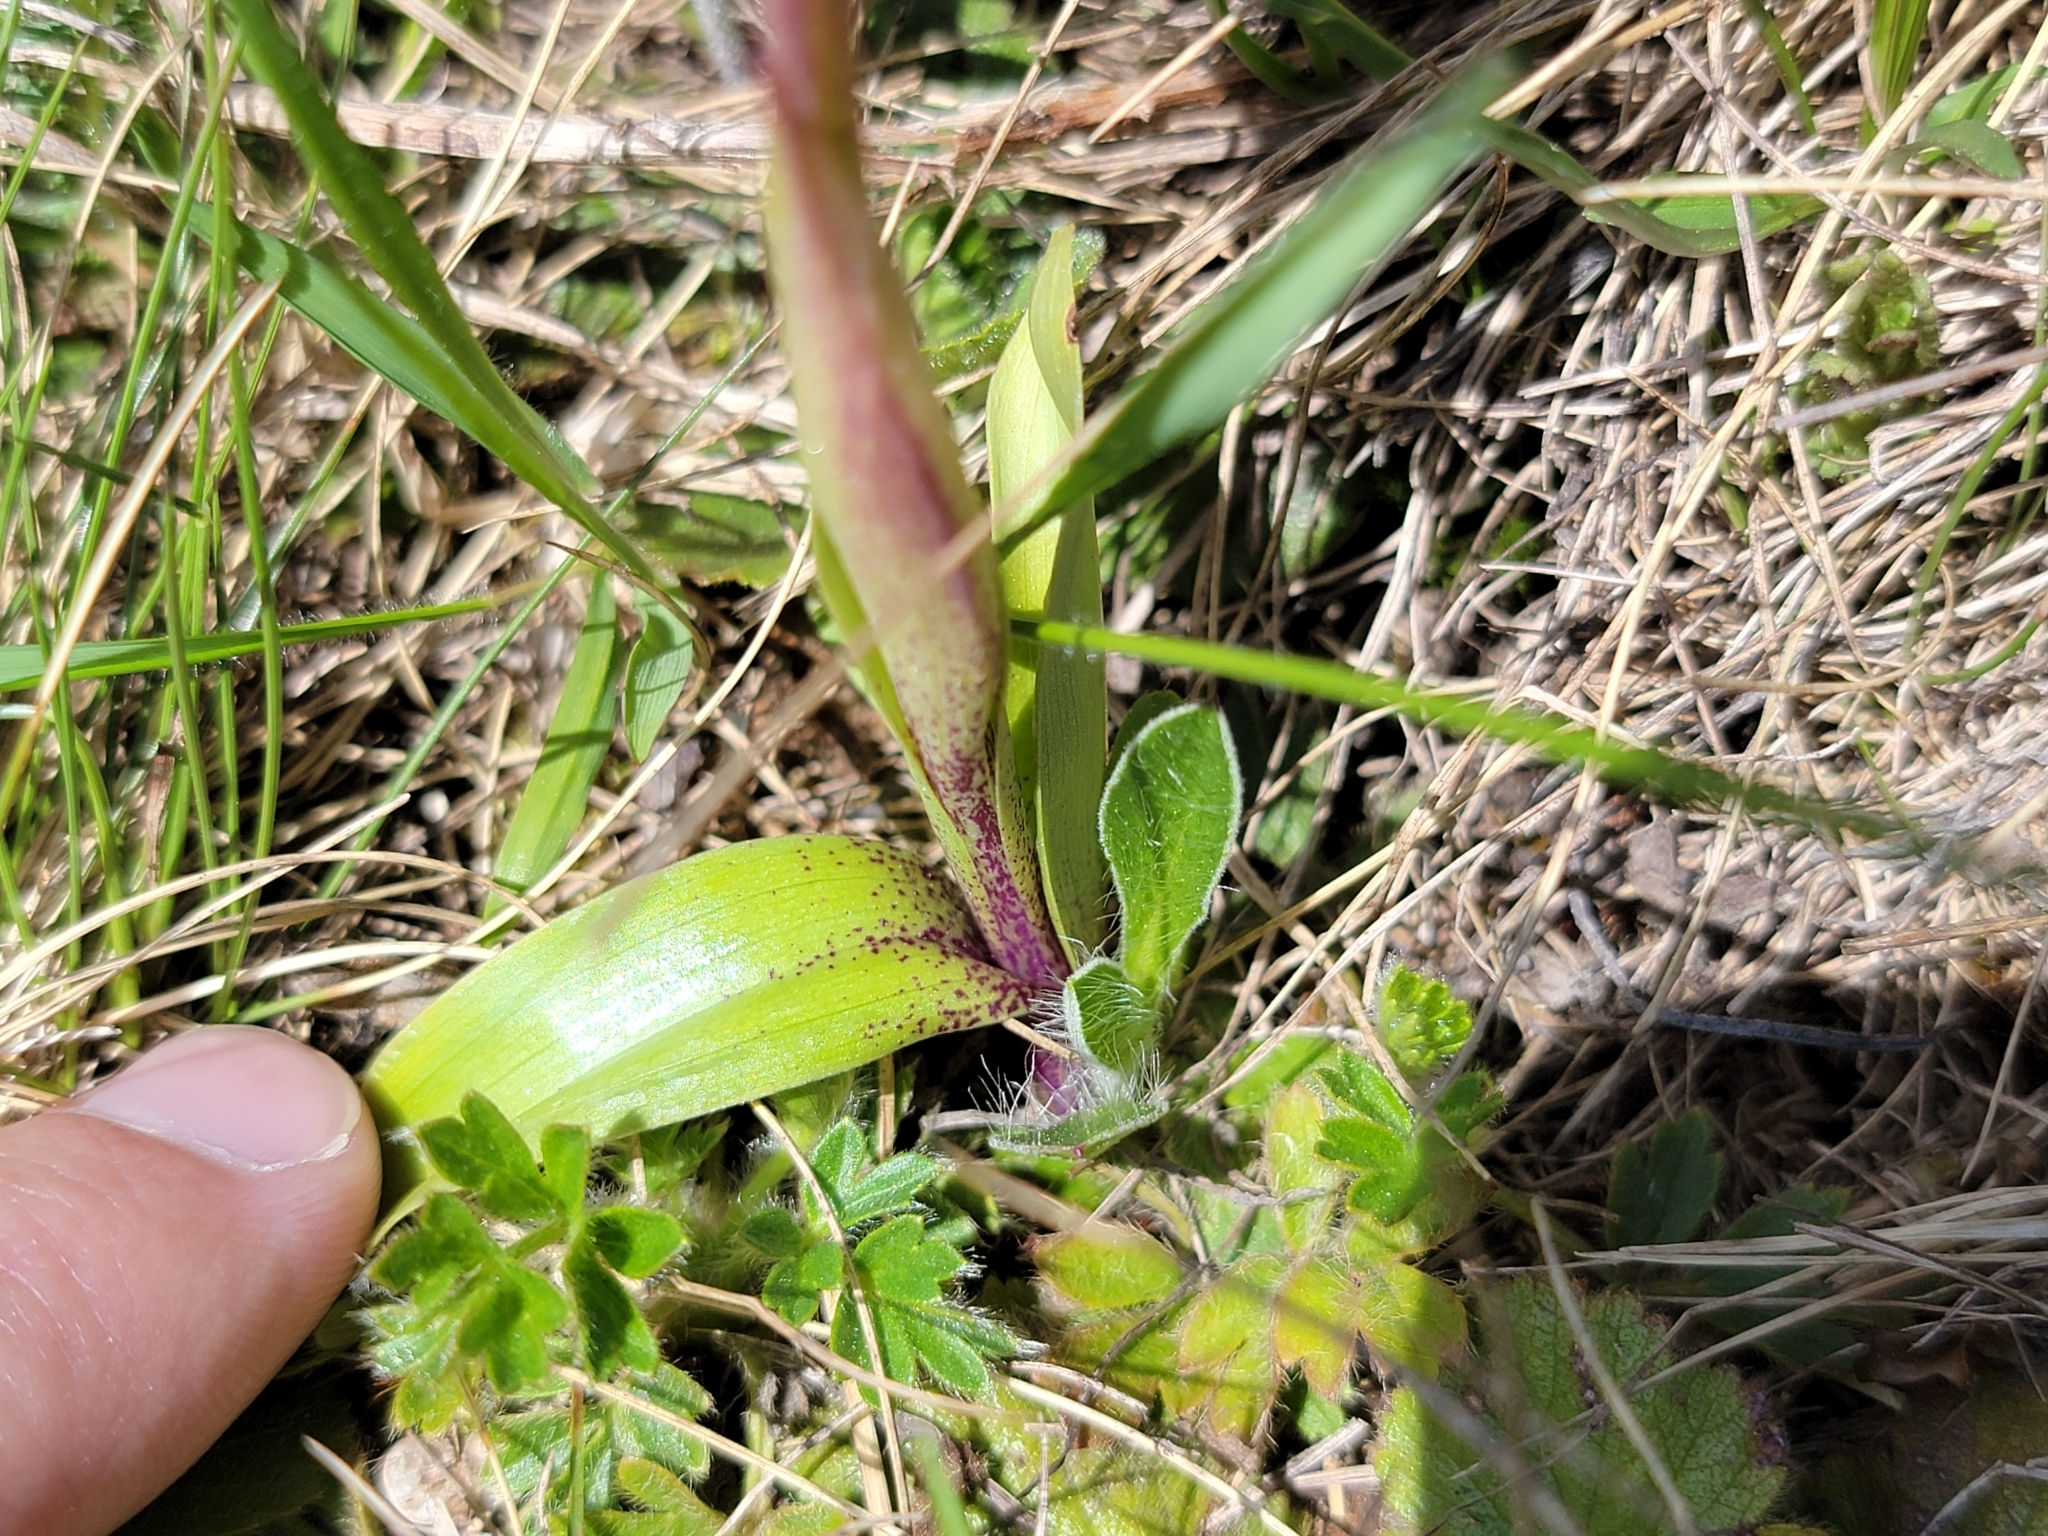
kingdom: Plantae
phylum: Tracheophyta
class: Liliopsida
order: Asparagales
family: Orchidaceae
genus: Orchis
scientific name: Orchis mascula
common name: Early-purple orchid
